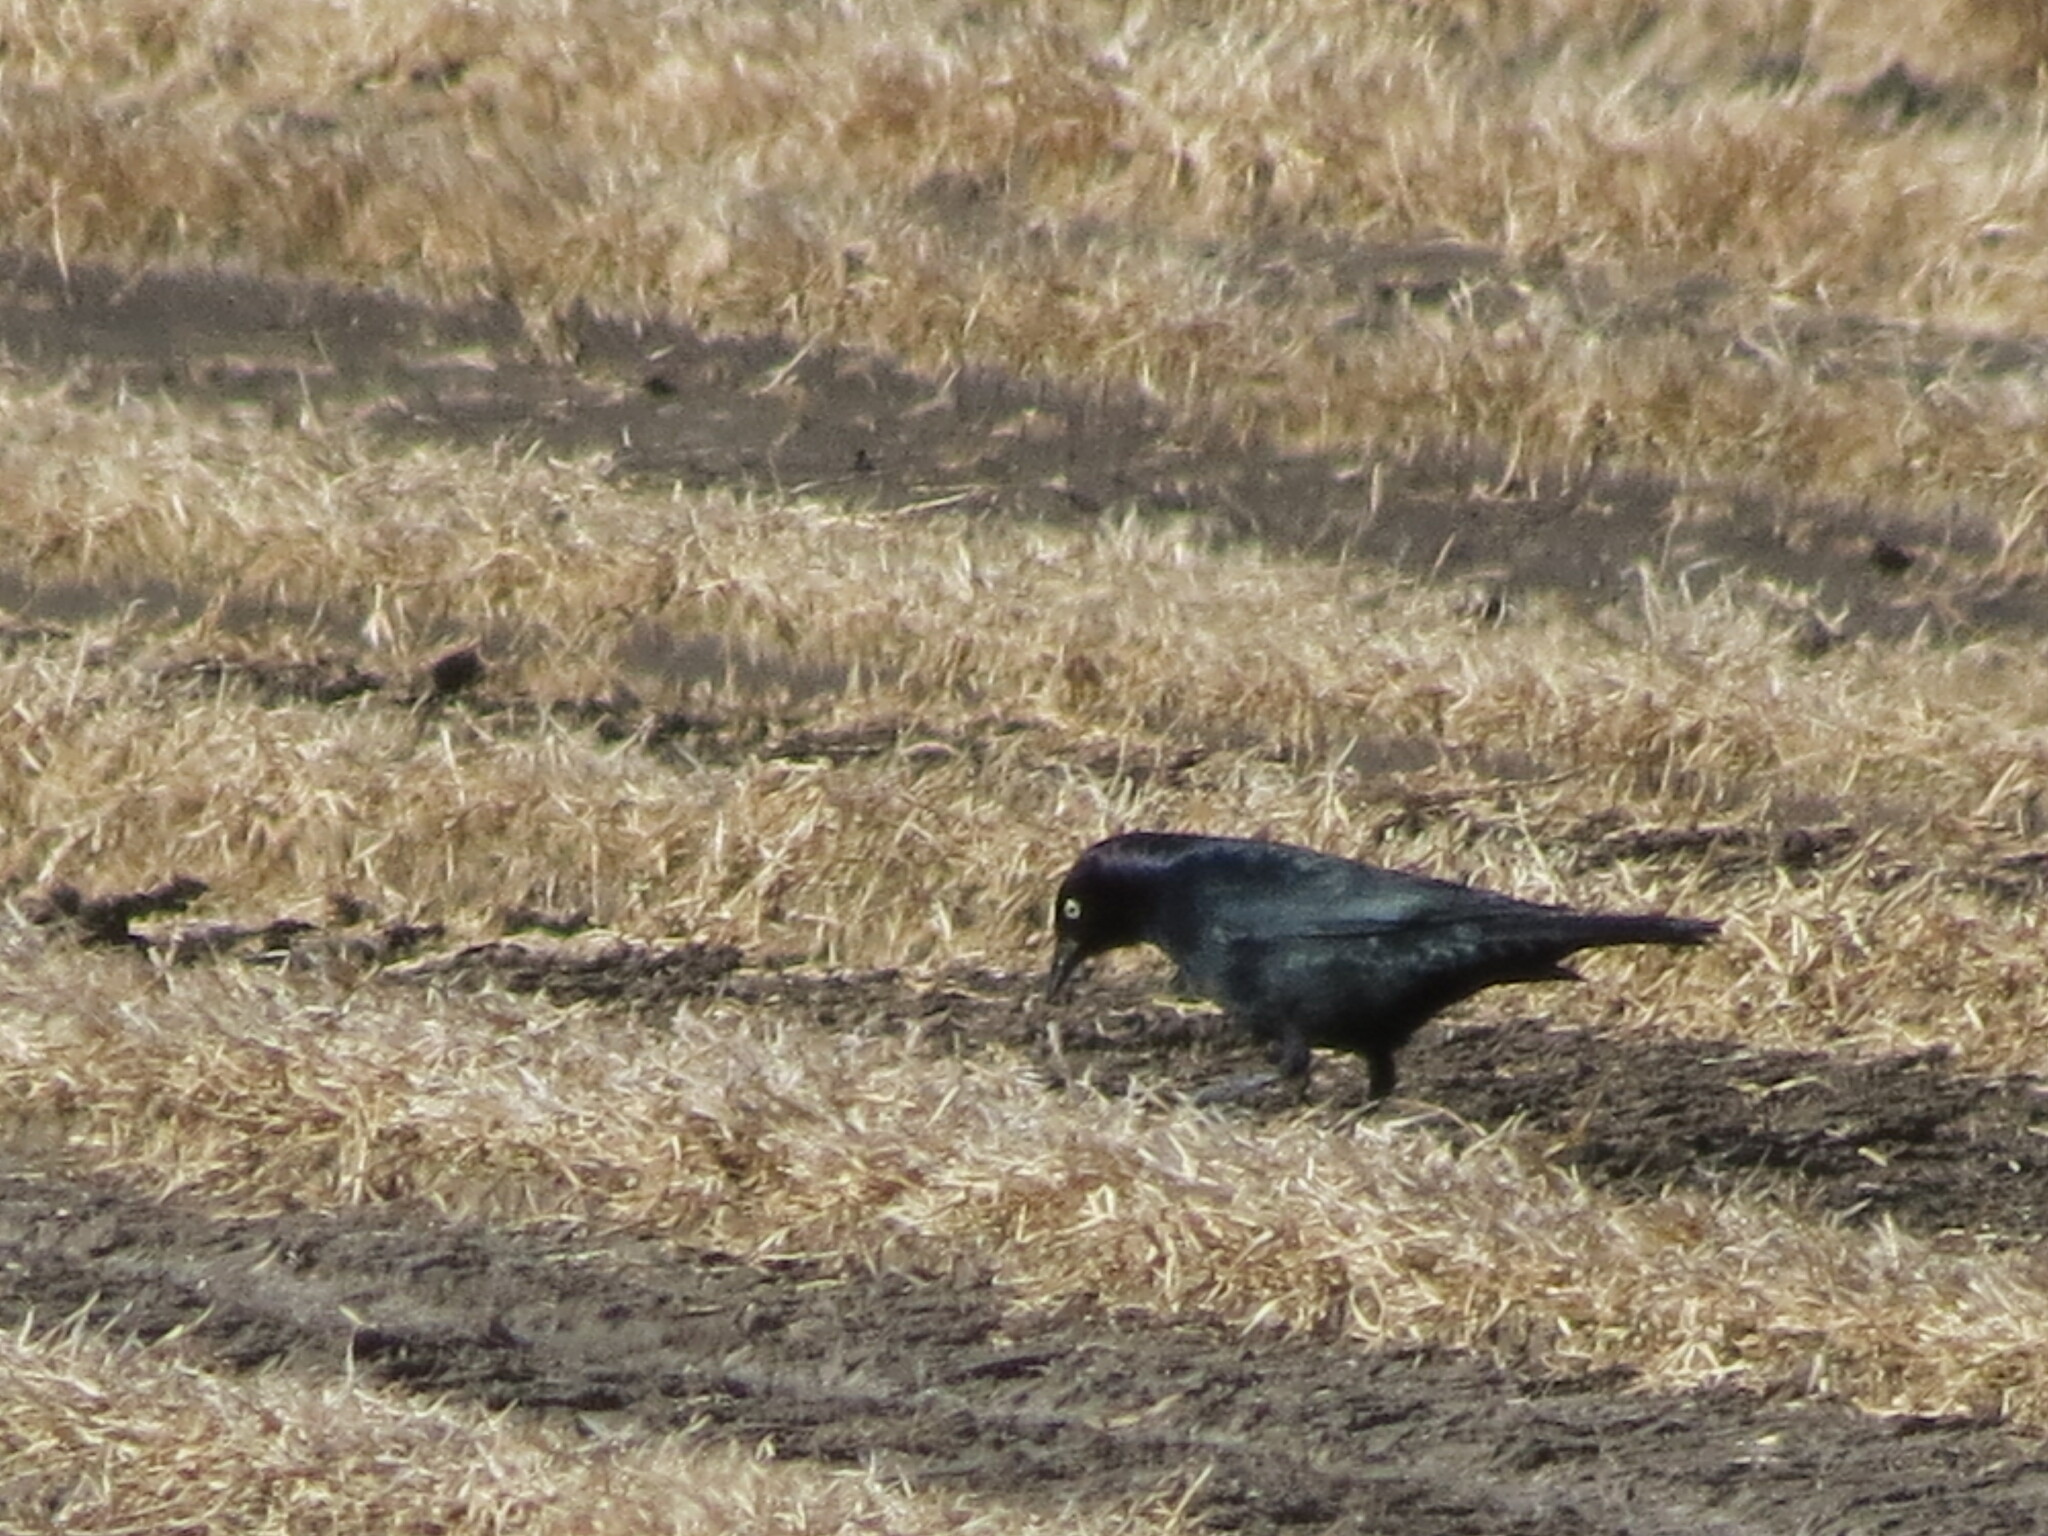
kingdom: Animalia
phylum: Chordata
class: Aves
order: Passeriformes
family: Icteridae
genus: Euphagus
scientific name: Euphagus cyanocephalus
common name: Brewer's blackbird
